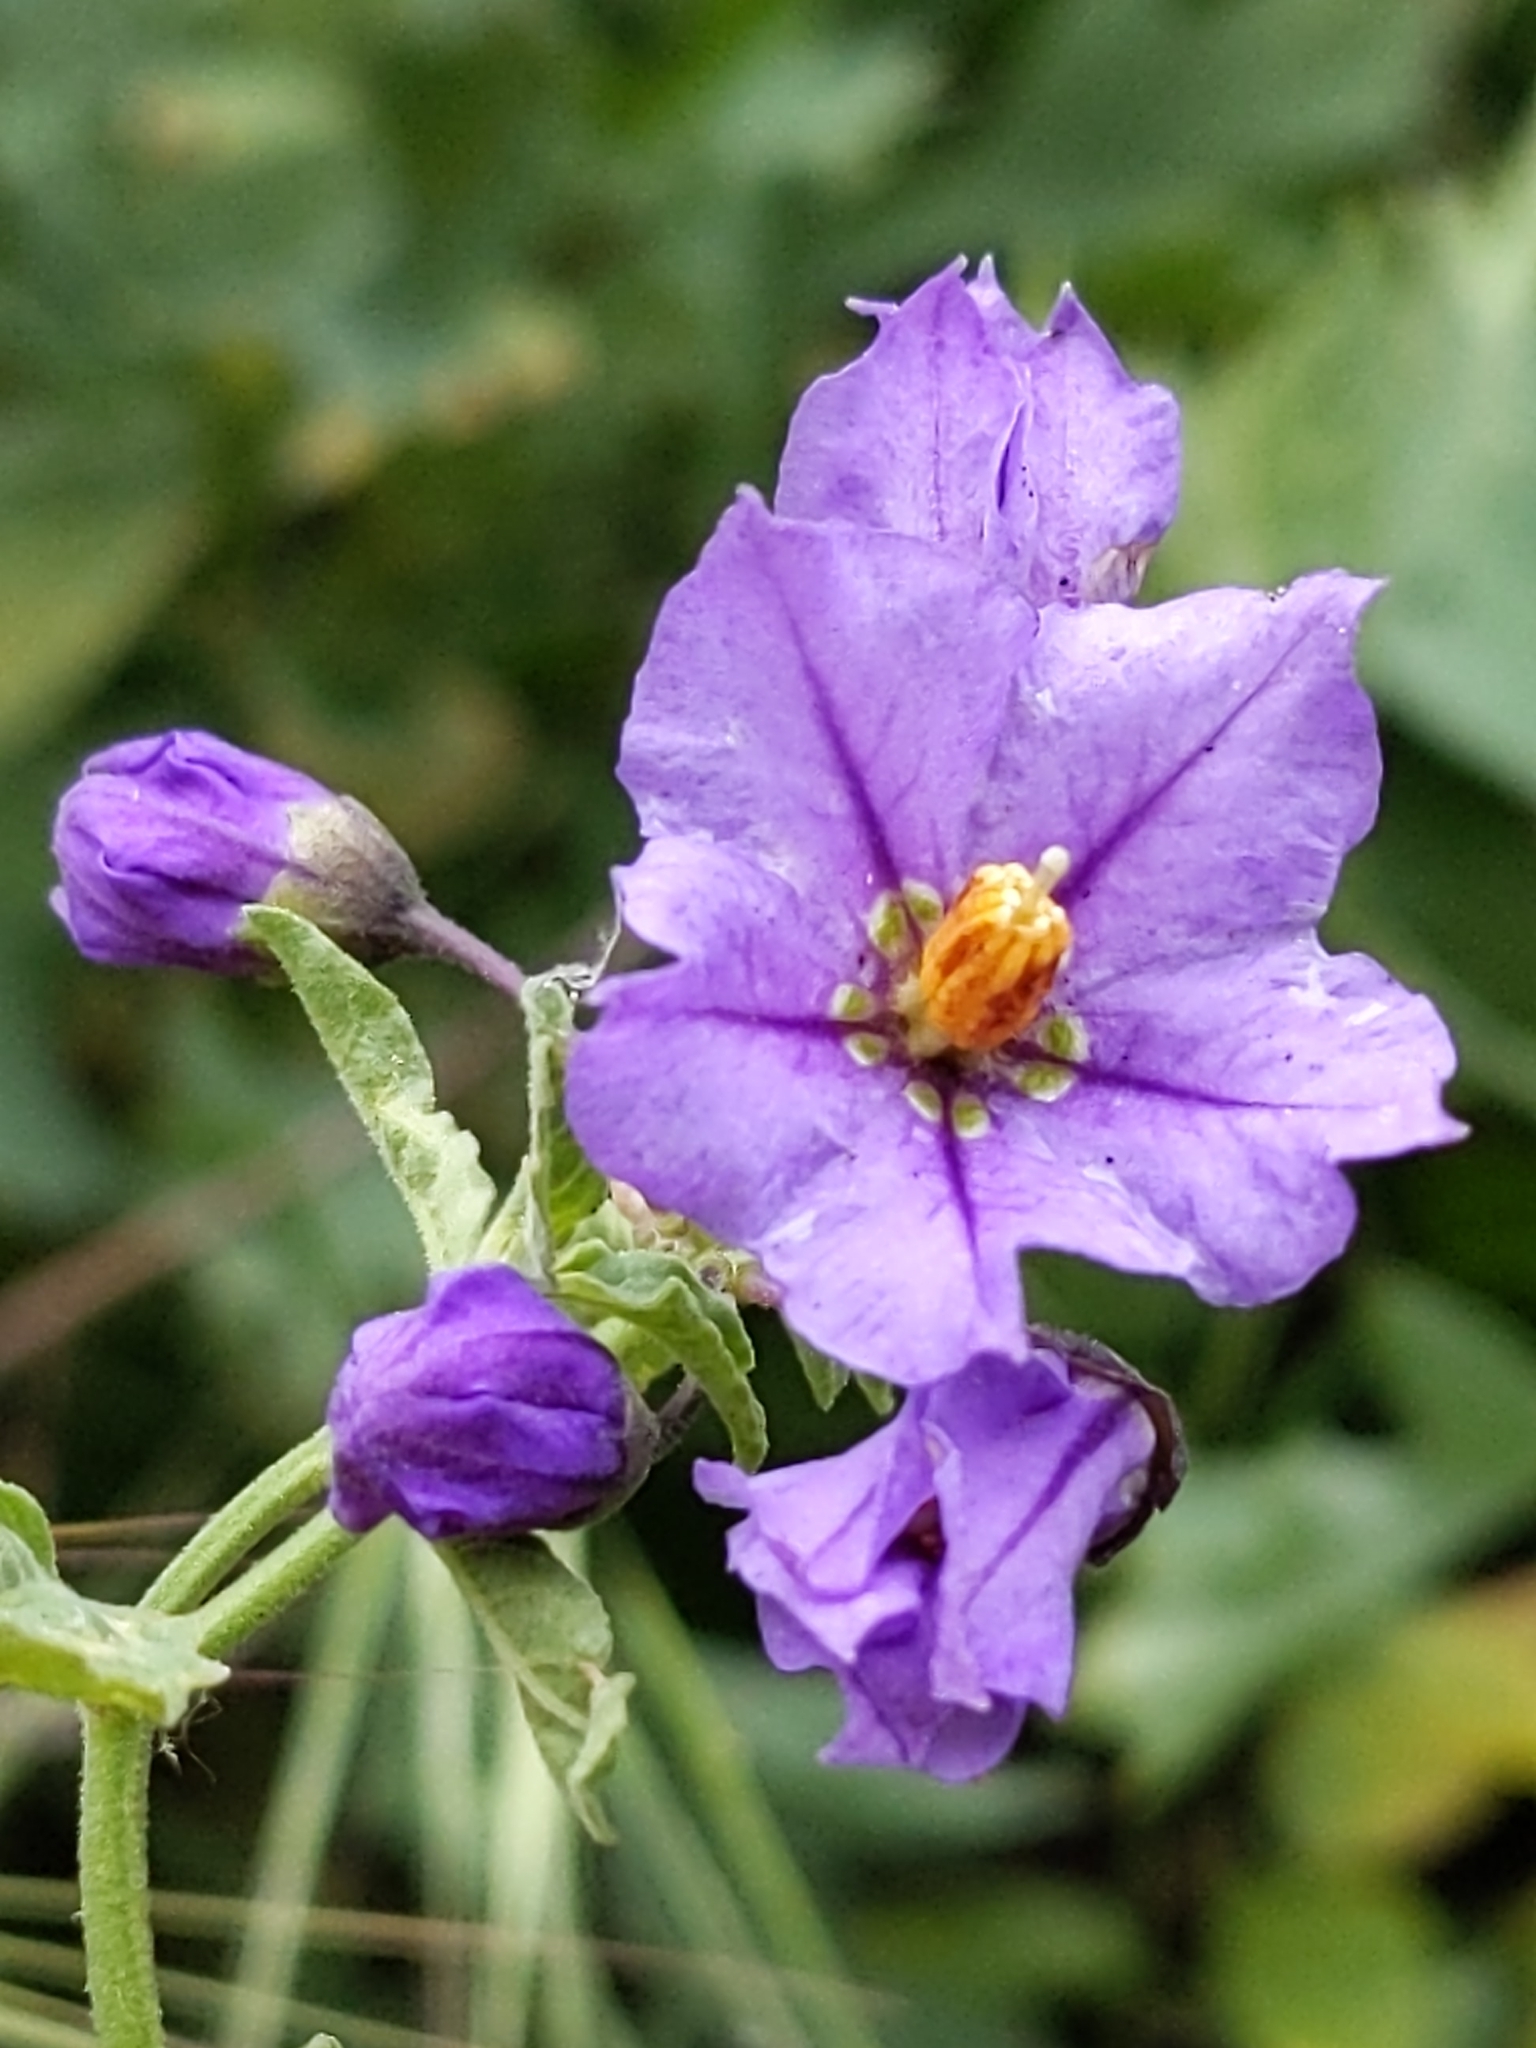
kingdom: Plantae
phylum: Tracheophyta
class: Magnoliopsida
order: Solanales
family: Solanaceae
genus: Solanum
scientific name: Solanum umbelliferum
